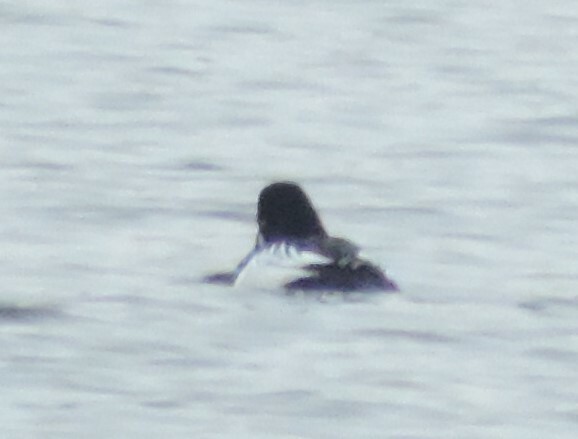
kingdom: Animalia
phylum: Chordata
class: Aves
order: Anseriformes
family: Anatidae
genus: Bucephala
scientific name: Bucephala clangula
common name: Common goldeneye
